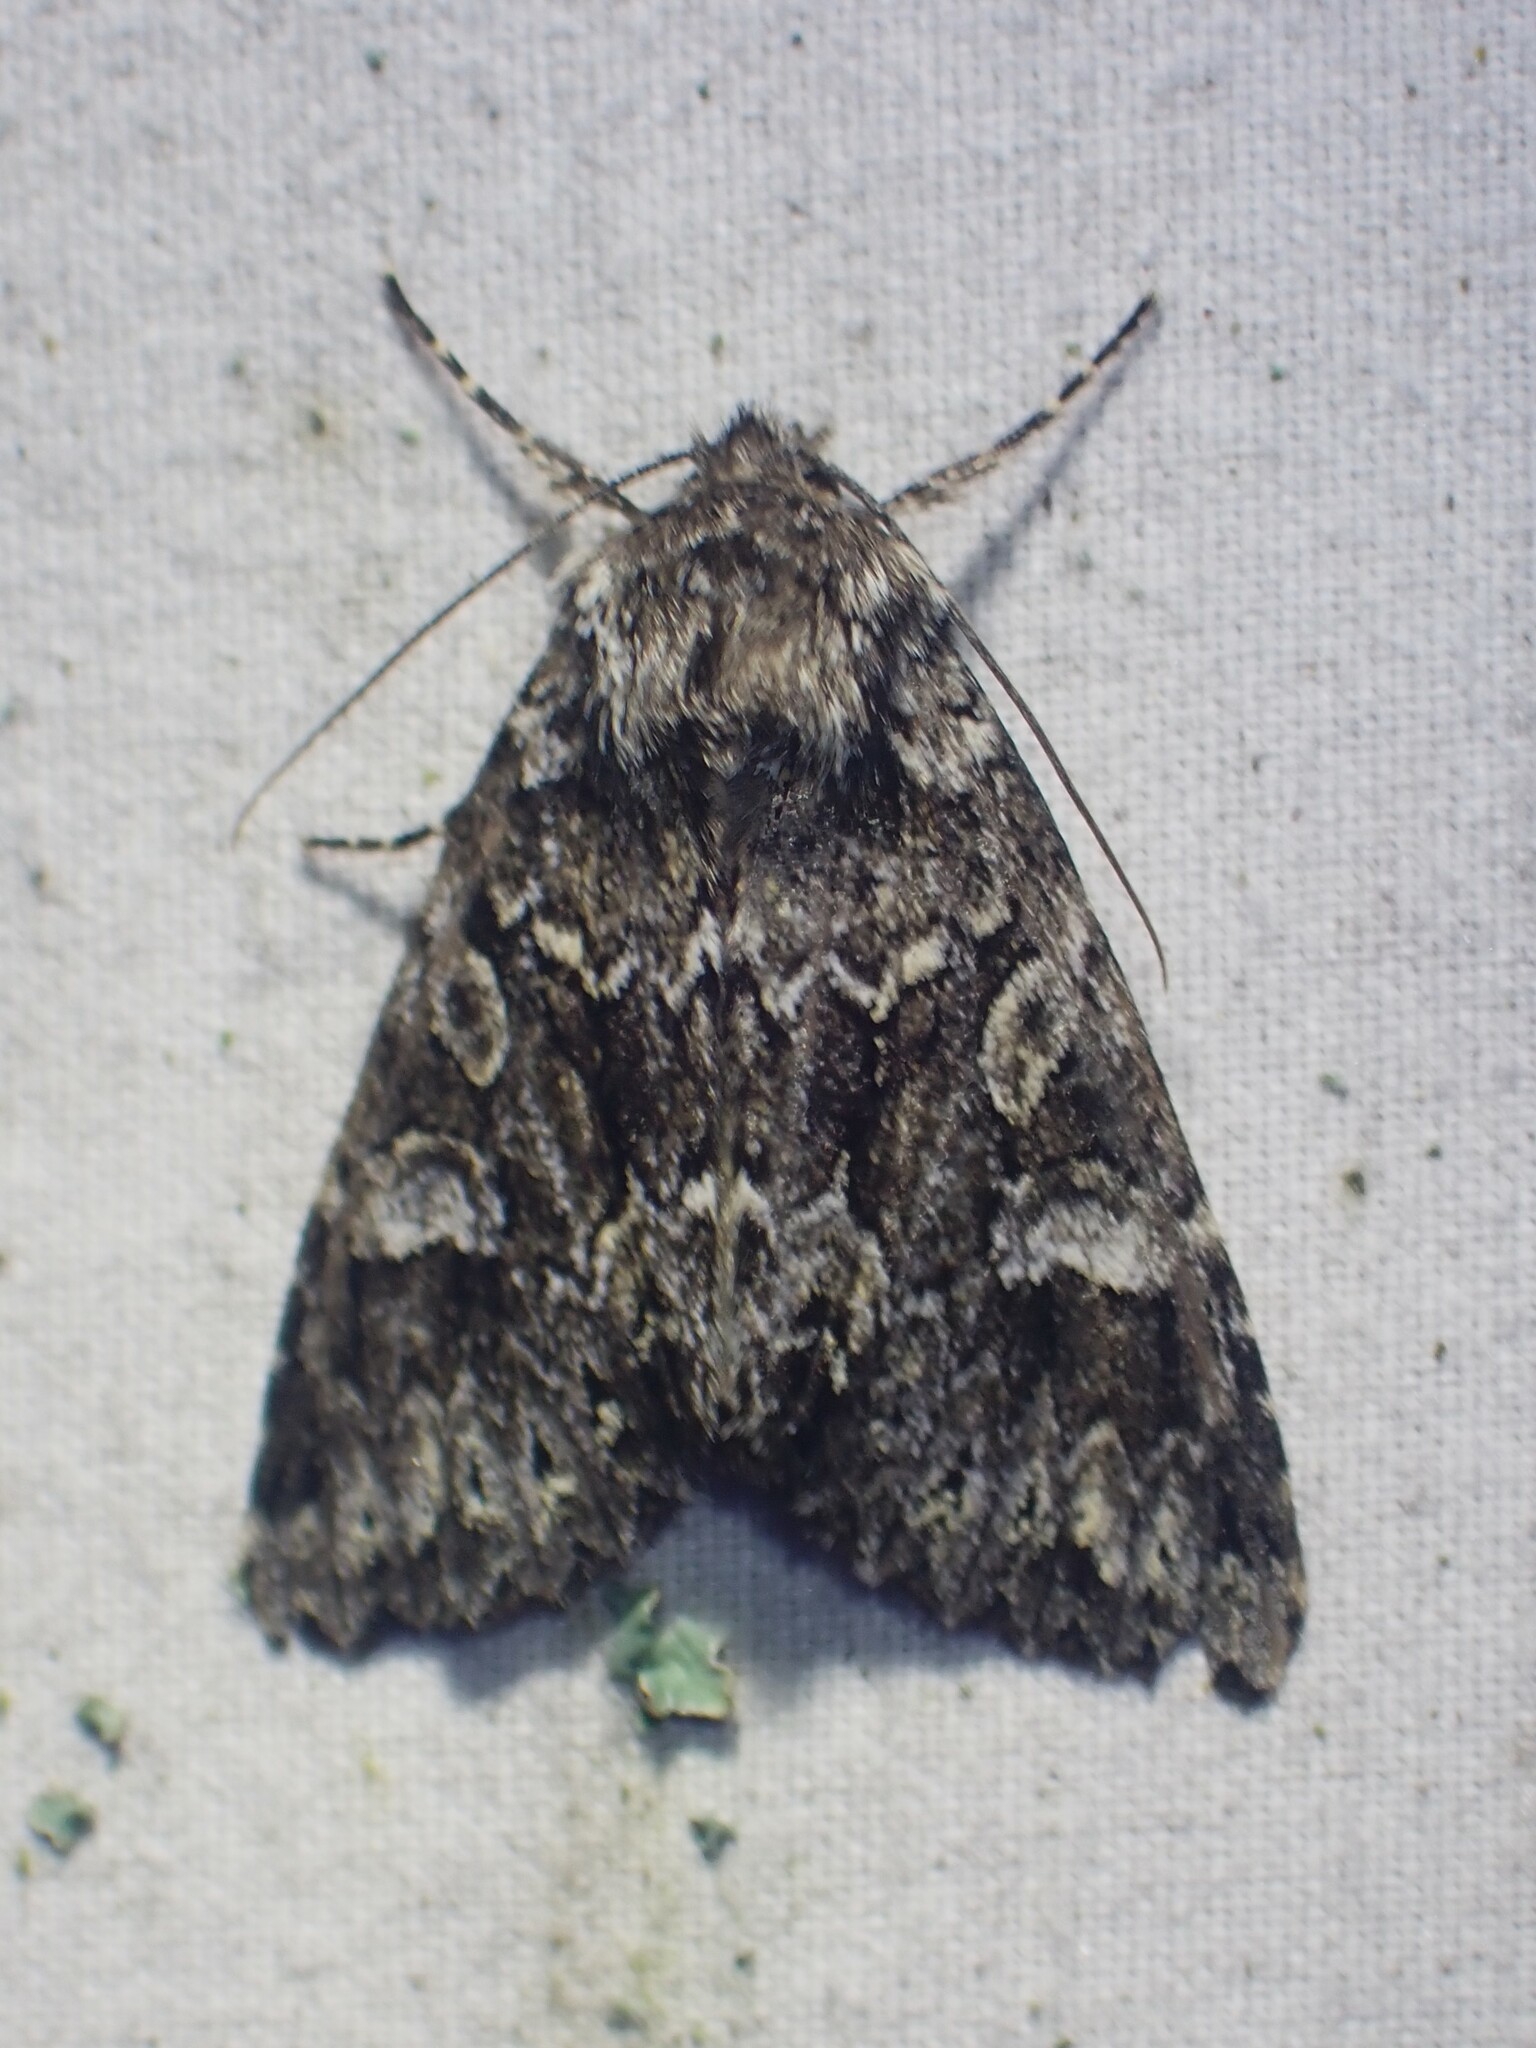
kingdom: Animalia
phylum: Arthropoda
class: Insecta
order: Lepidoptera
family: Noctuidae
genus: Platypolia
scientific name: Platypolia anceps
